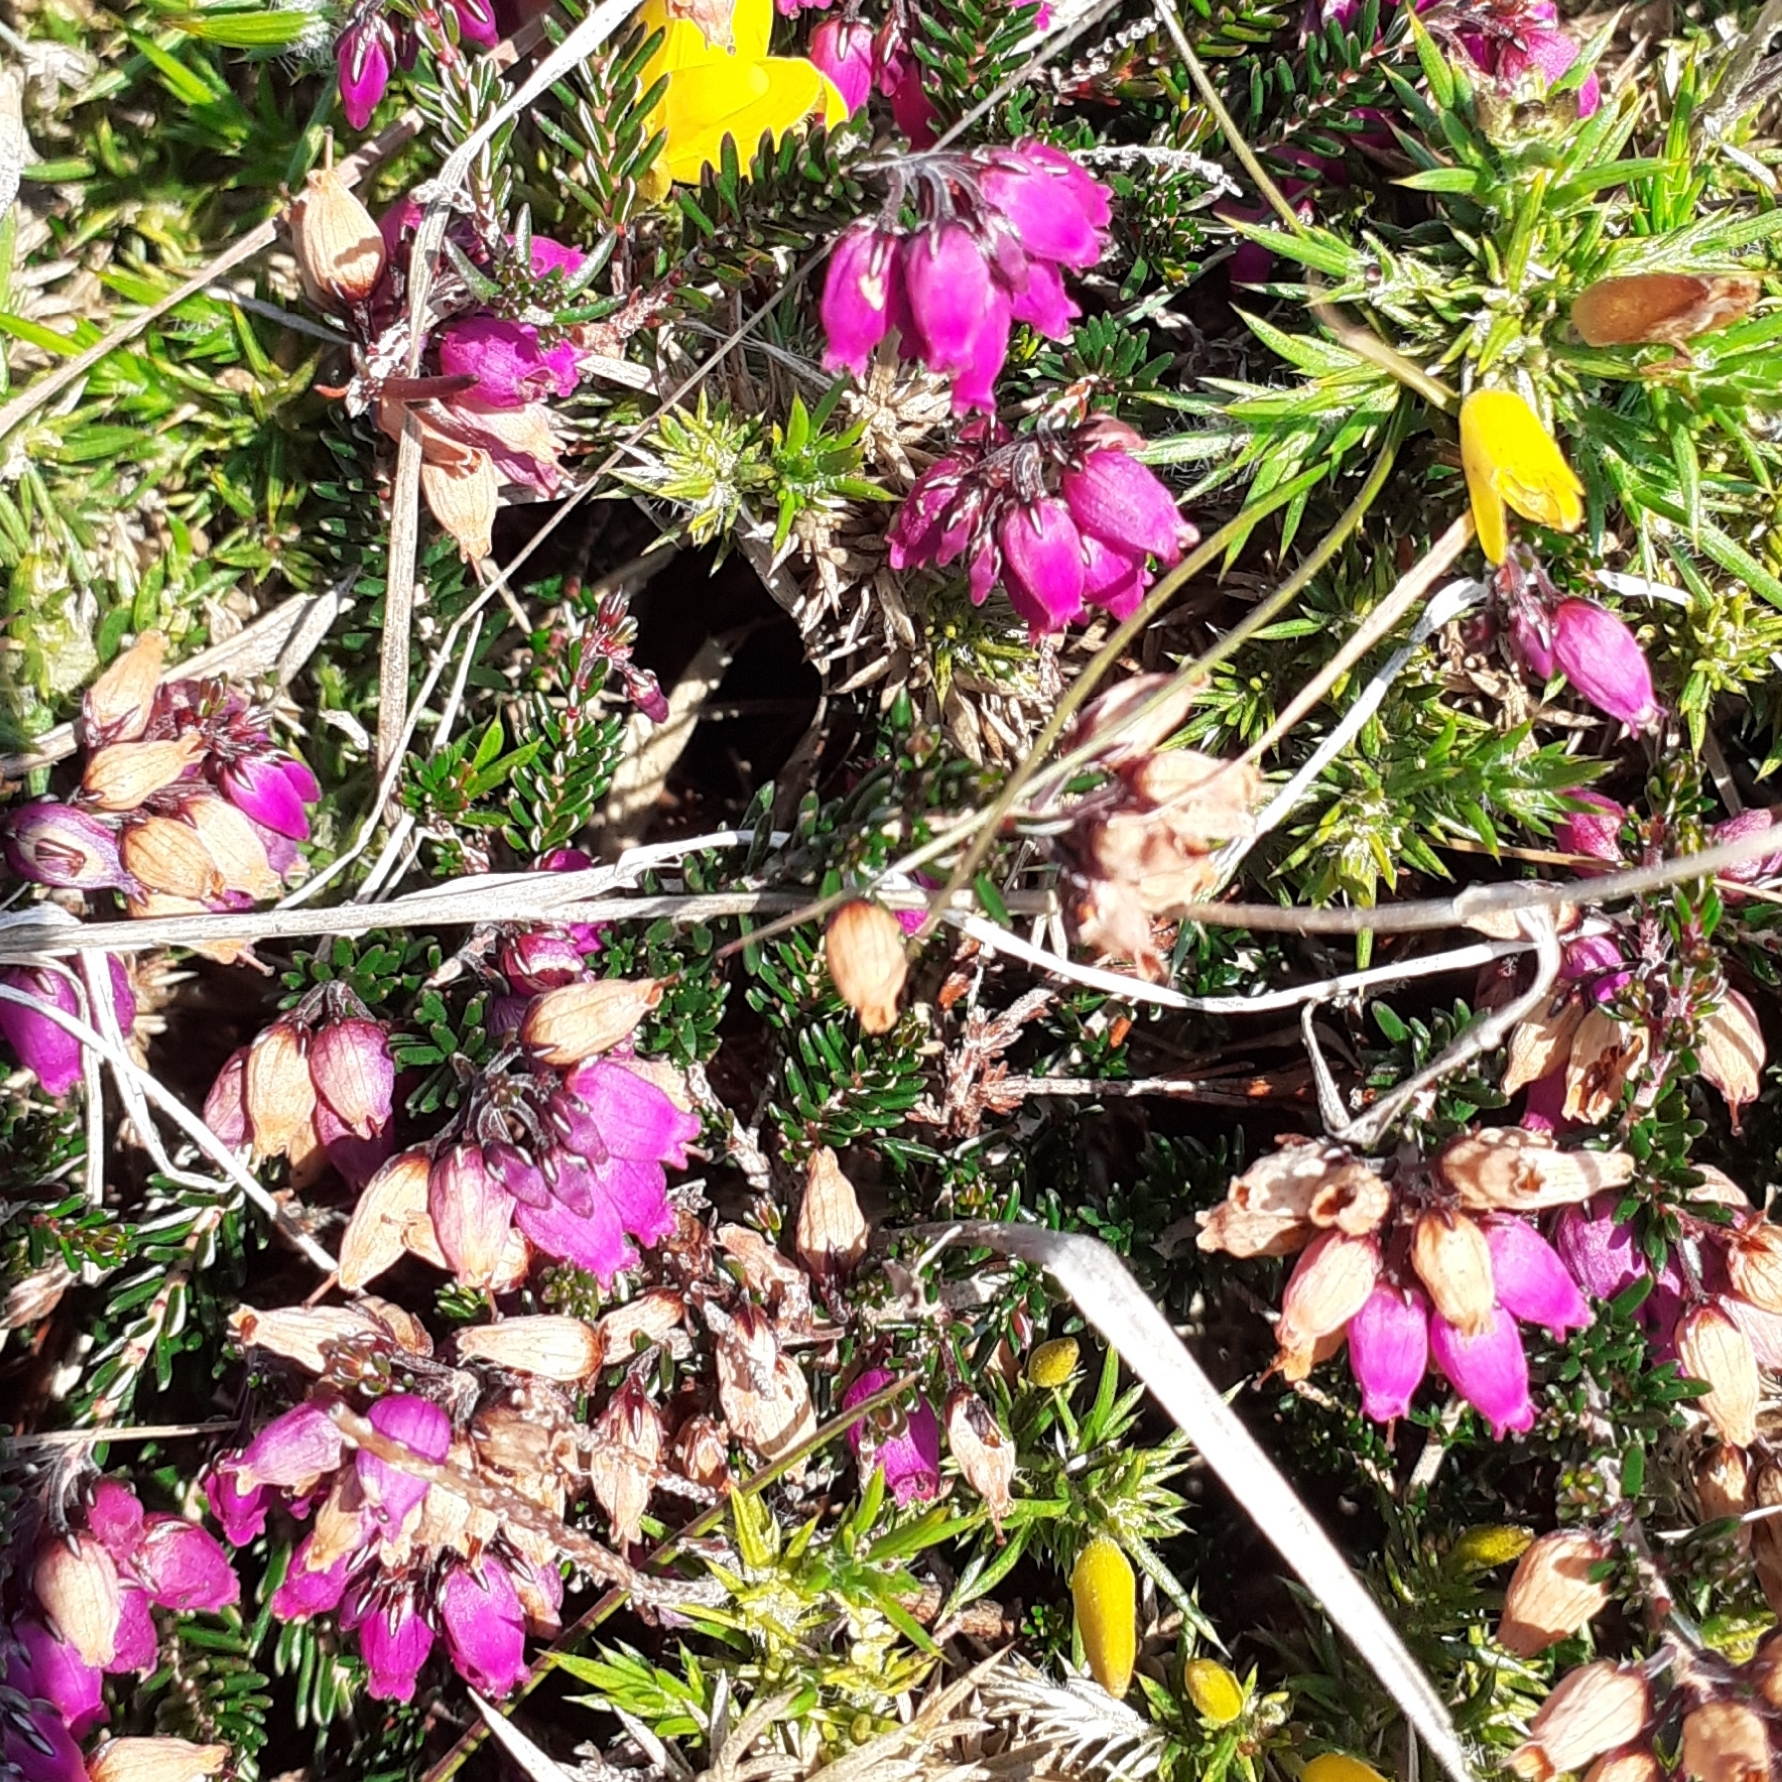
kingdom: Plantae
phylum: Tracheophyta
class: Magnoliopsida
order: Ericales
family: Ericaceae
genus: Erica
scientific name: Erica cinerea
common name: Bell heather
